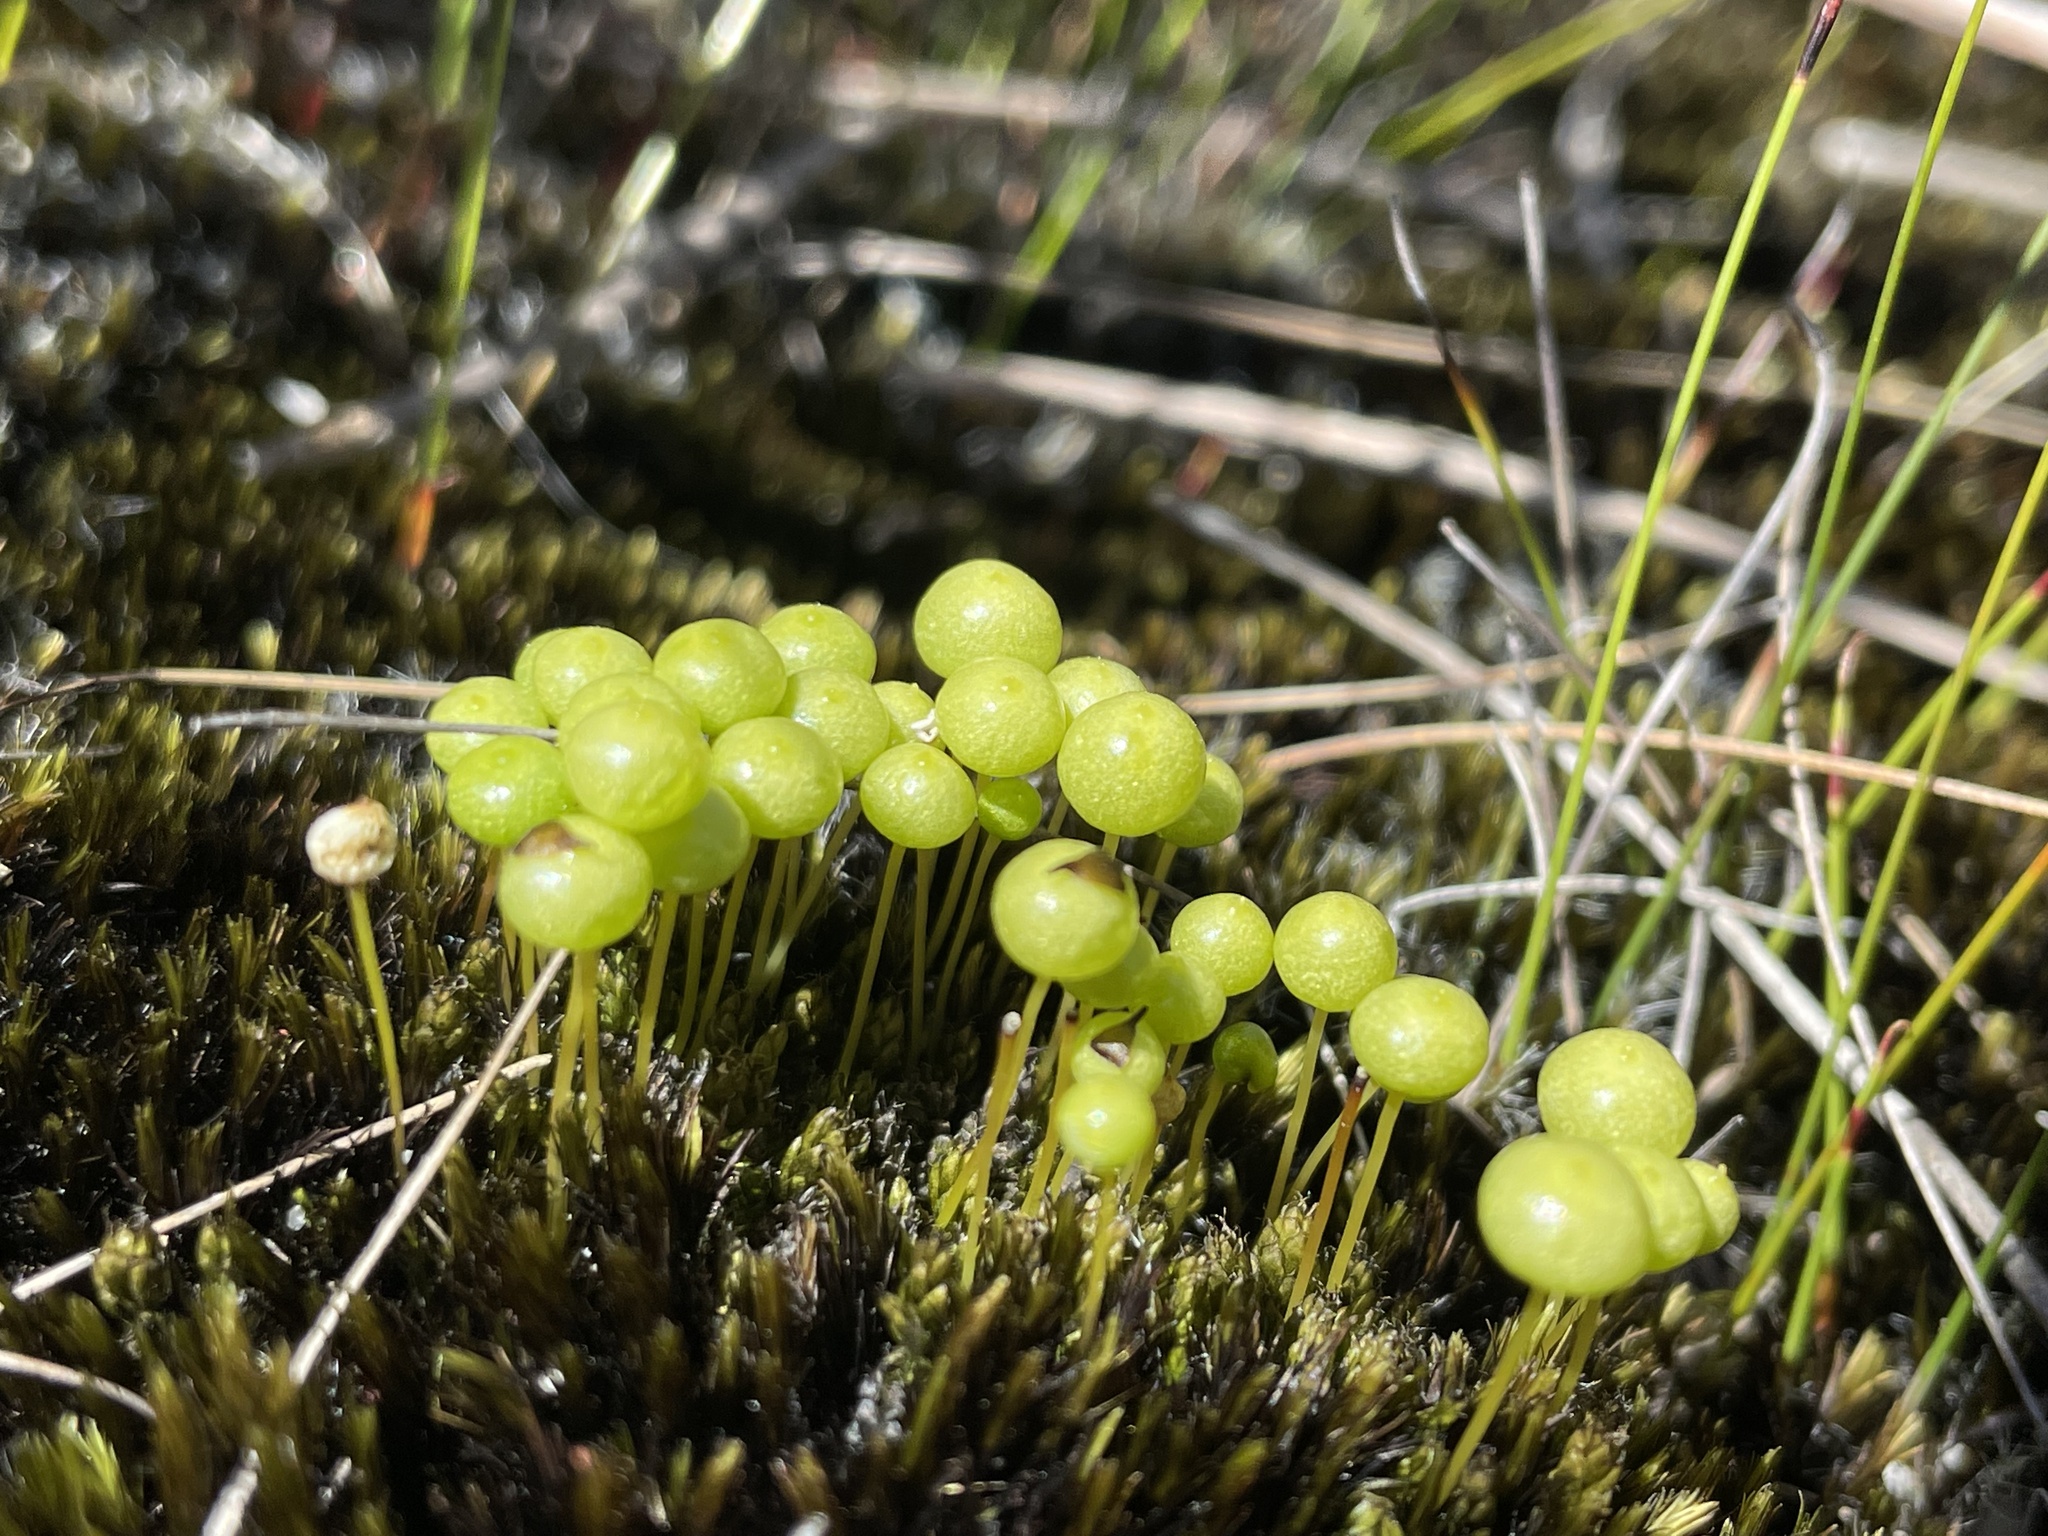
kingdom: Plantae
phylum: Bryophyta
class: Bryopsida
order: Pottiales
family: Pleurophascaceae
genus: Pleurophascum
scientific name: Pleurophascum grandiglobum
